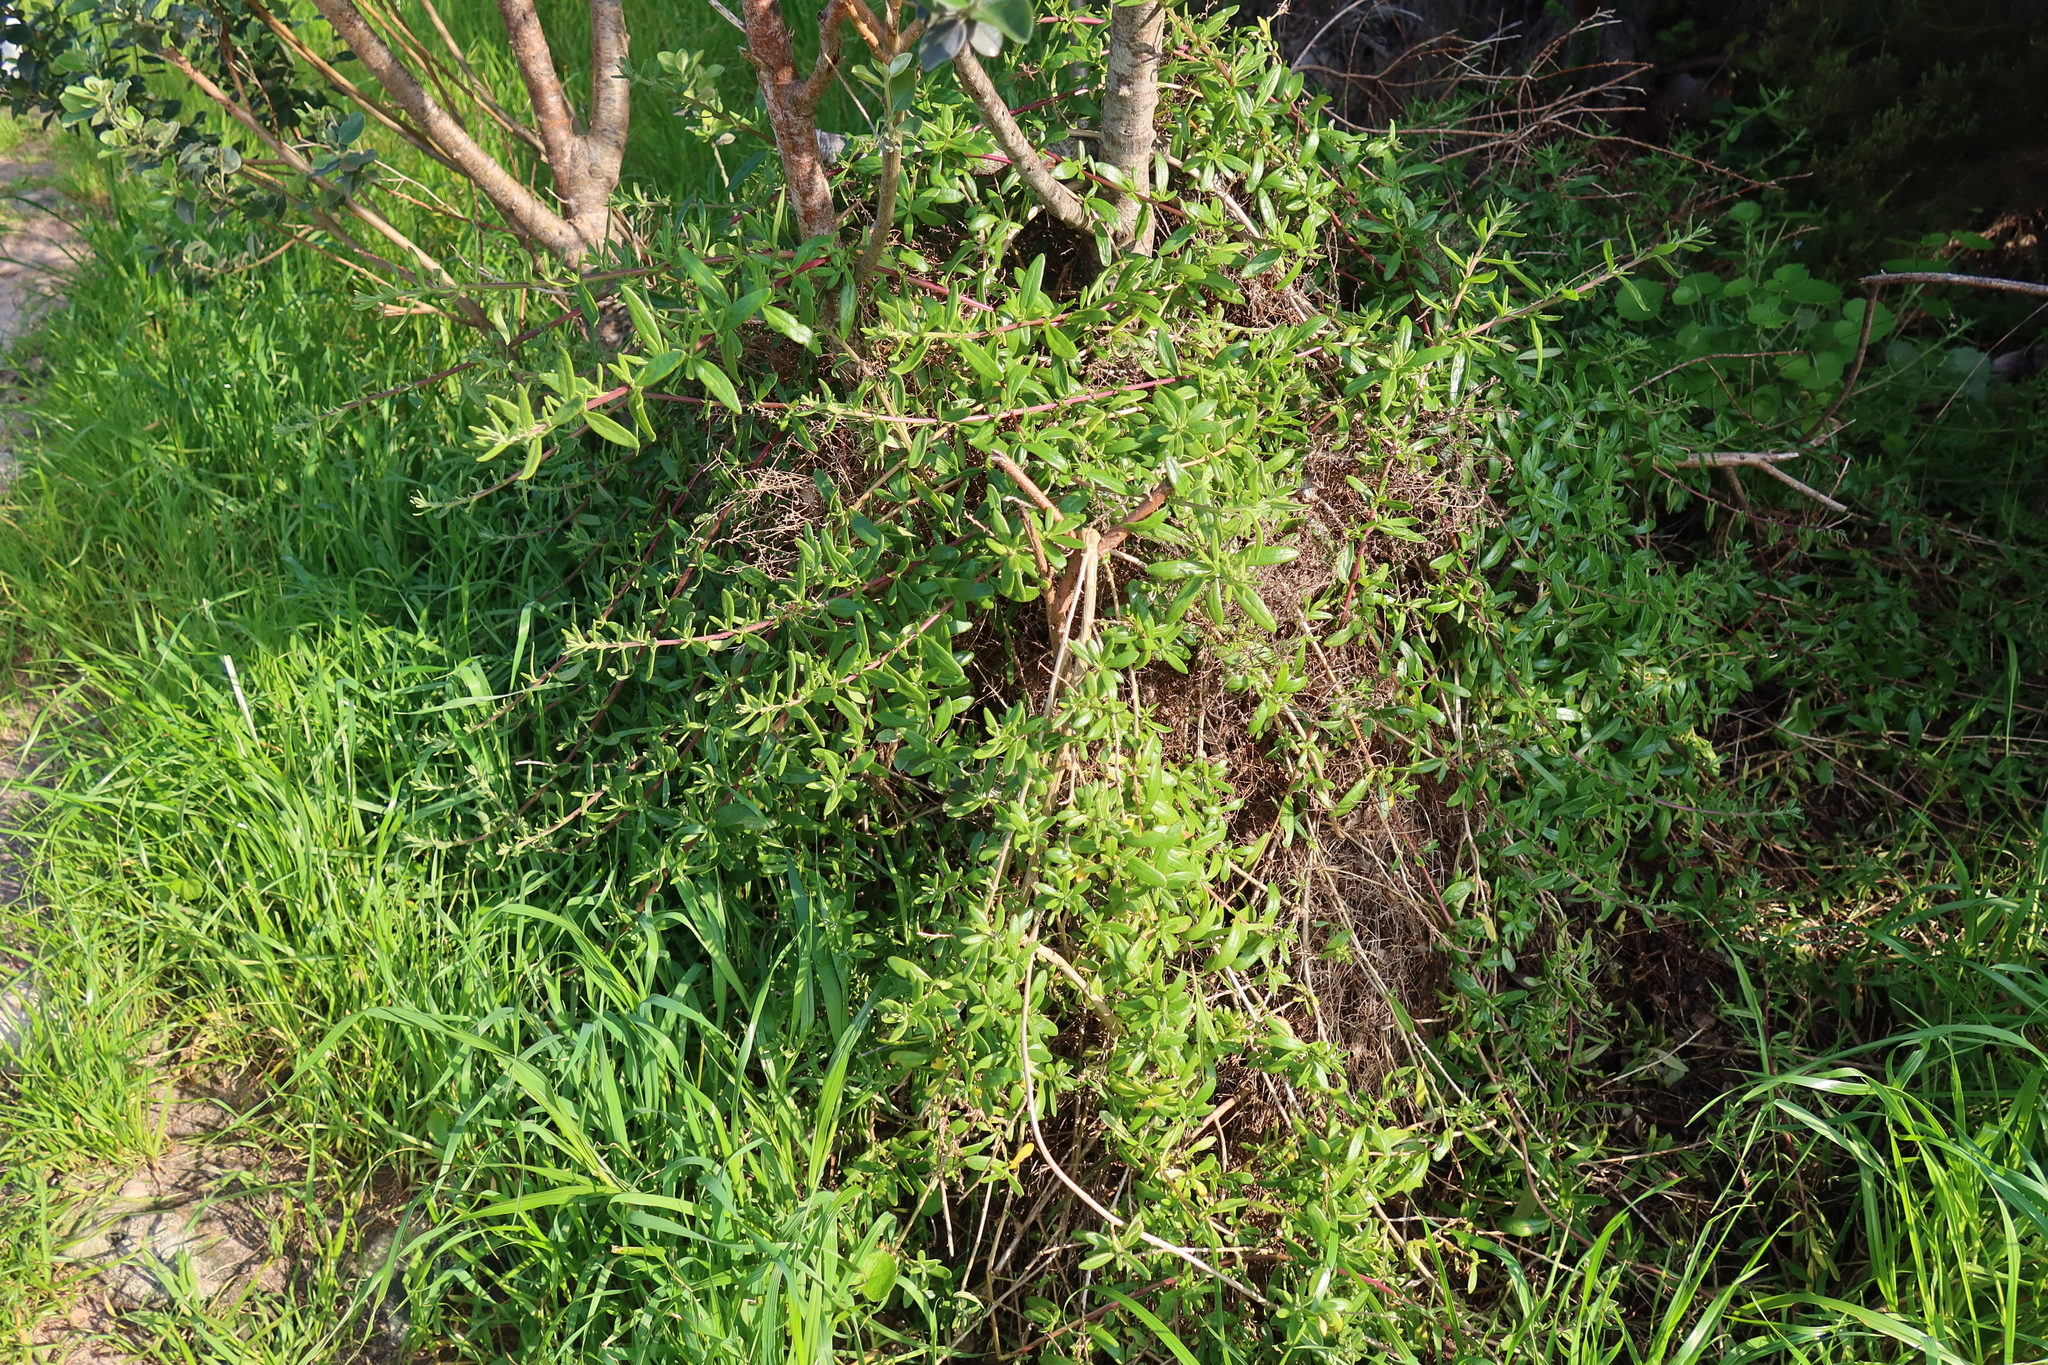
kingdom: Plantae
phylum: Tracheophyta
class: Magnoliopsida
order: Caryophyllales
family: Aizoaceae
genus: Tetragonia
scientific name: Tetragonia fruticosa
